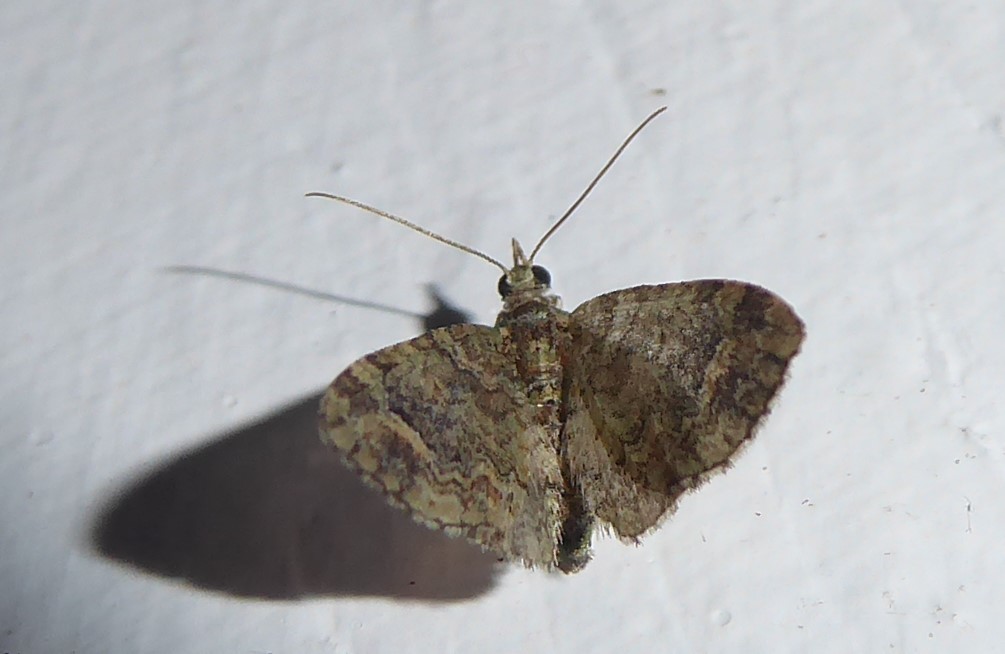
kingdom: Animalia
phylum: Arthropoda
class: Insecta
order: Lepidoptera
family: Geometridae
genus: Idaea
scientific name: Idaea mutanda
